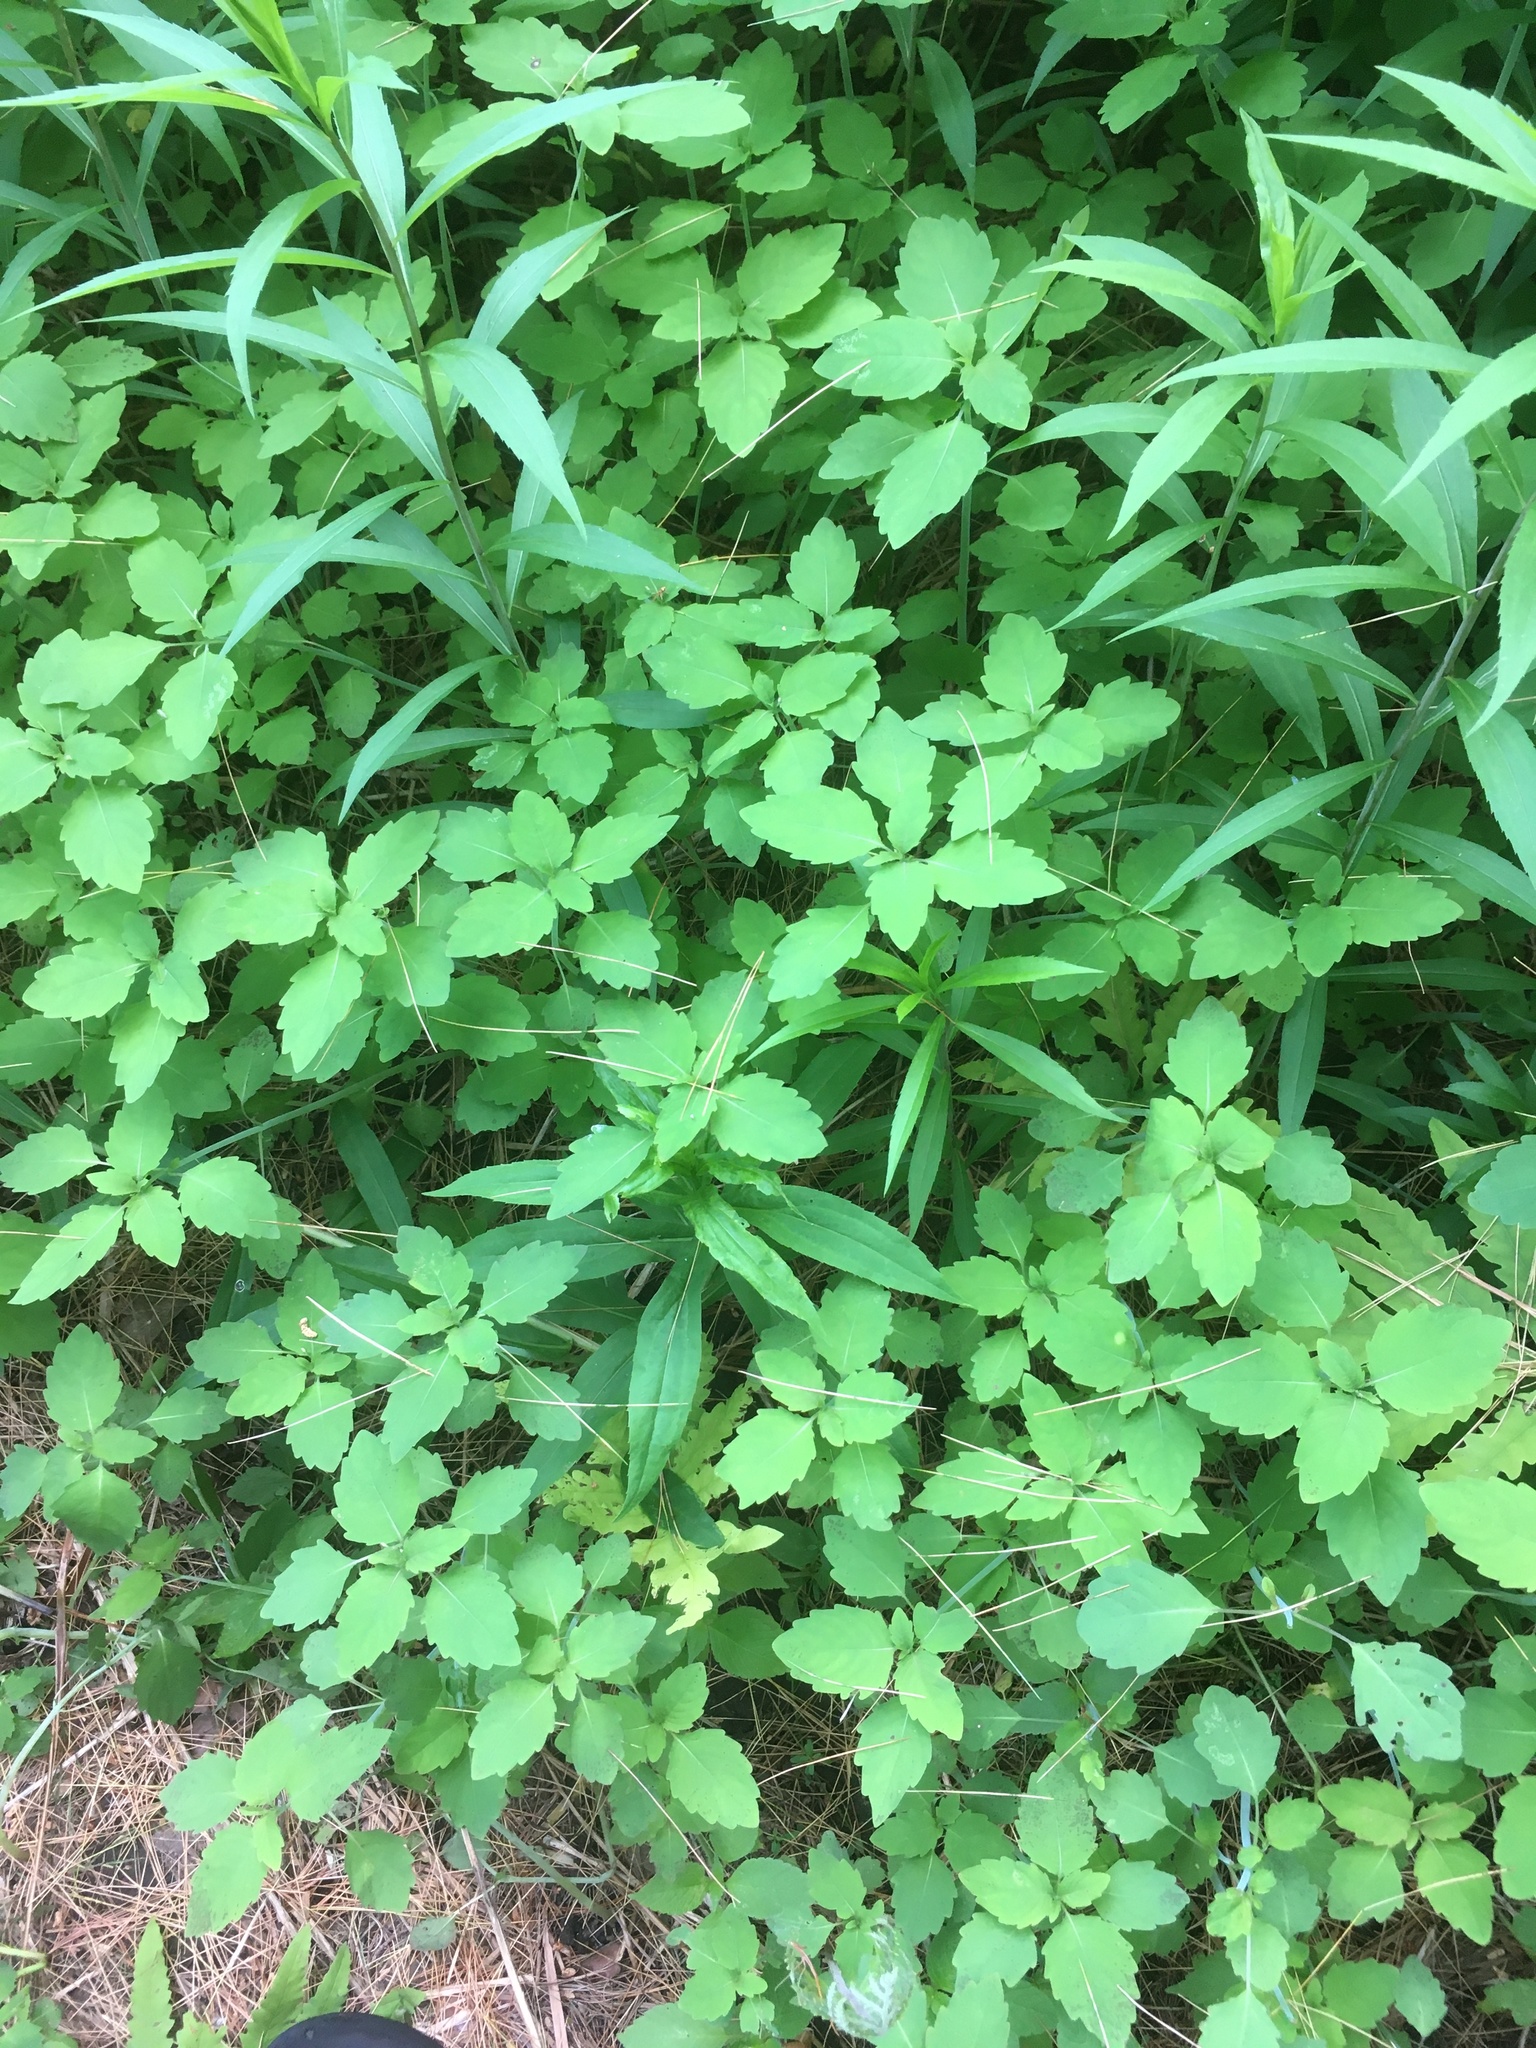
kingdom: Plantae
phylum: Tracheophyta
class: Magnoliopsida
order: Ericales
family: Balsaminaceae
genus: Impatiens
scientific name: Impatiens capensis
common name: Orange balsam
